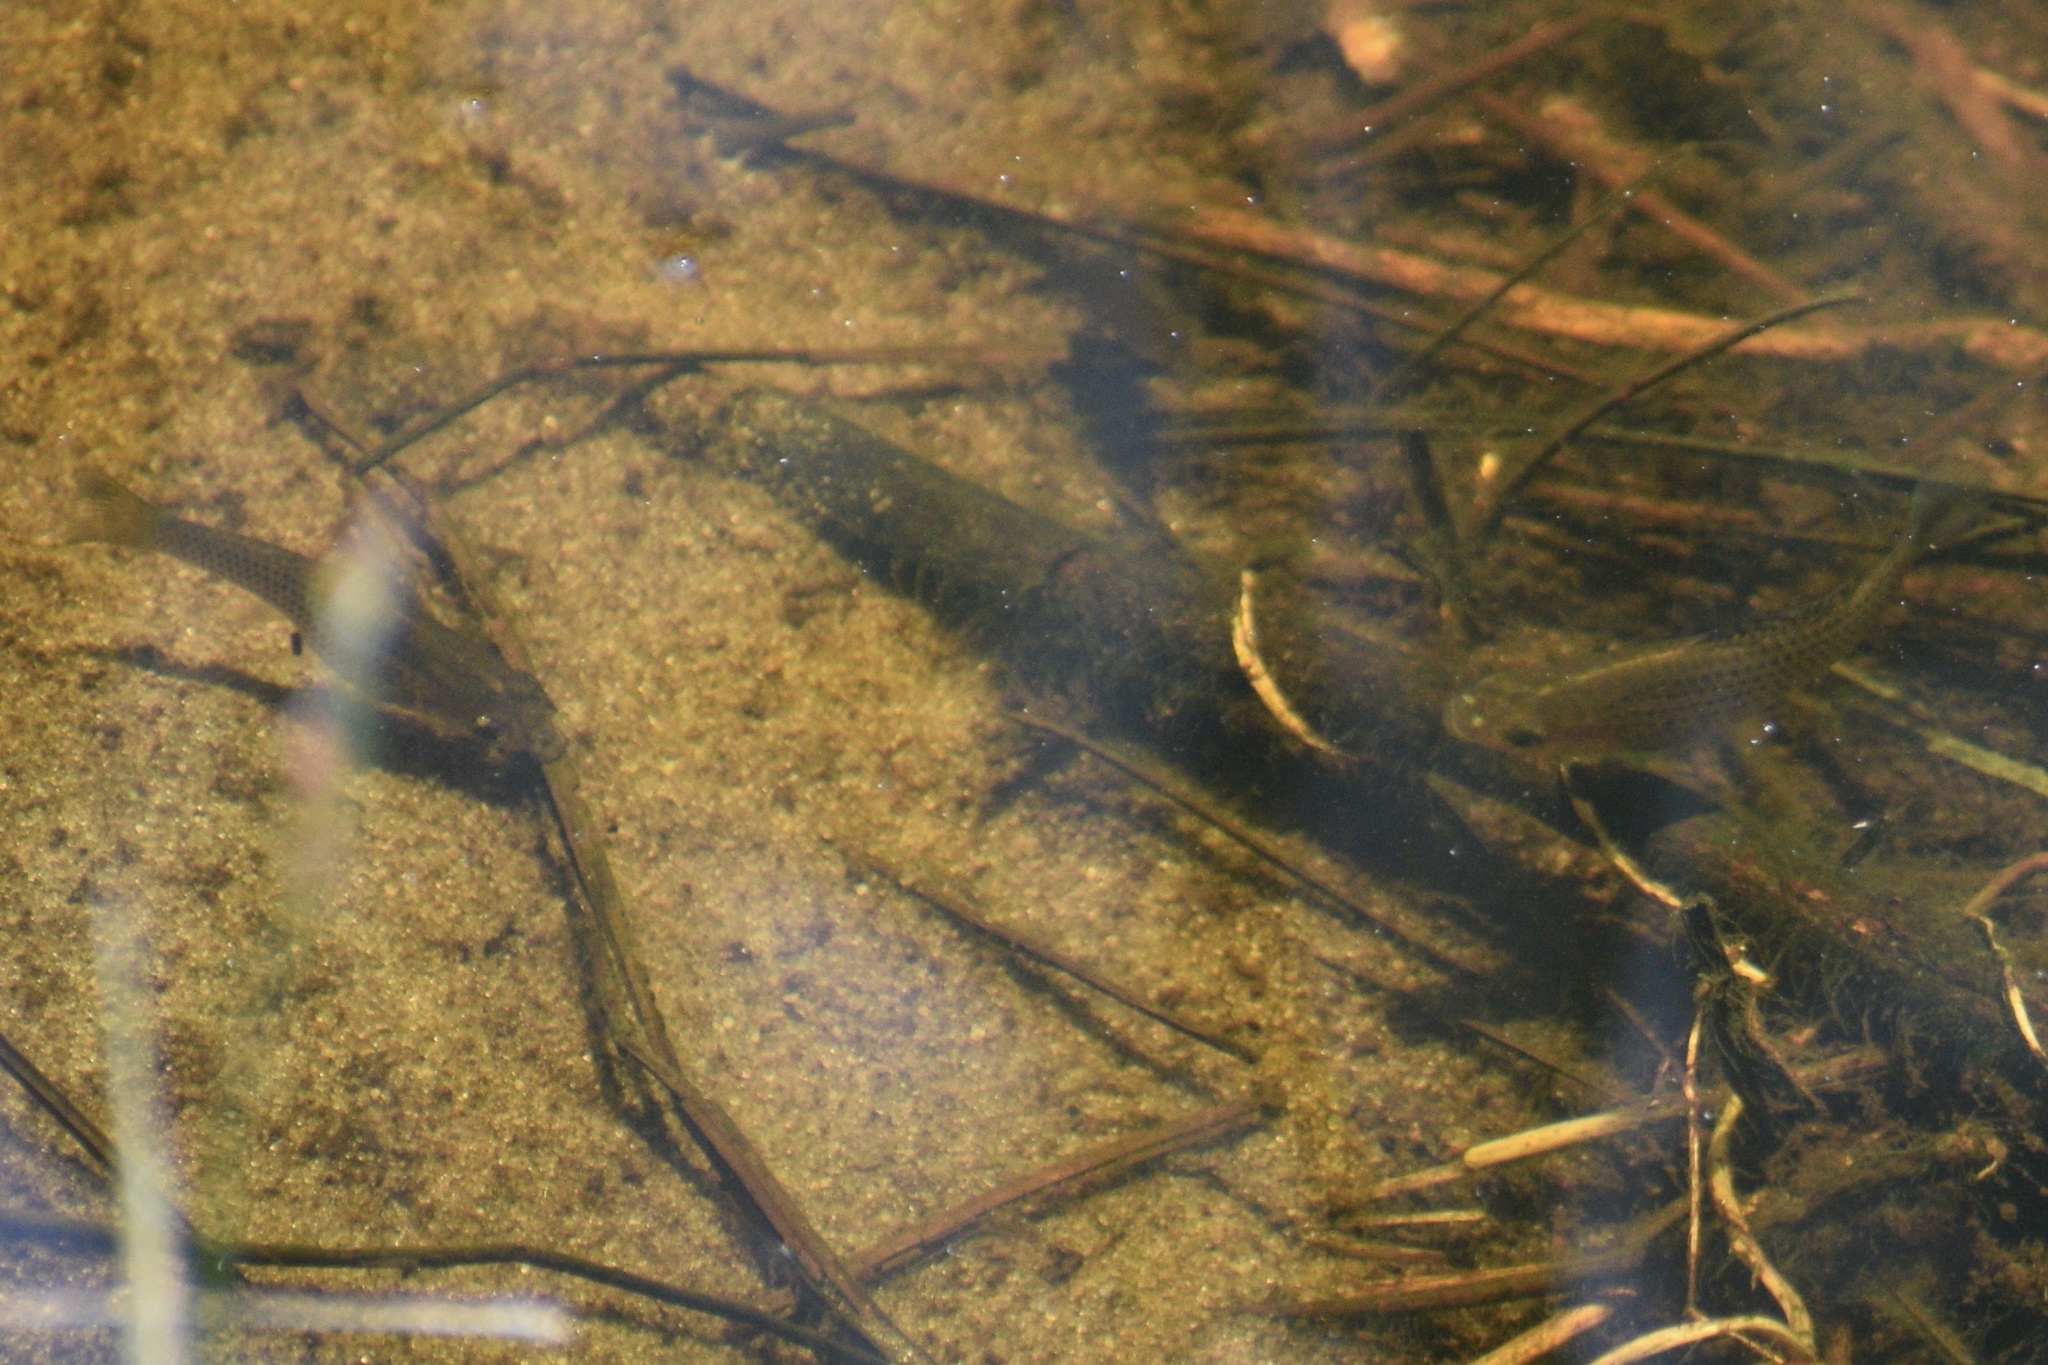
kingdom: Animalia
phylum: Chordata
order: Cyprinodontiformes
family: Poeciliidae
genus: Poecilia
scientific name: Poecilia latipinna
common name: Sailfin molly
